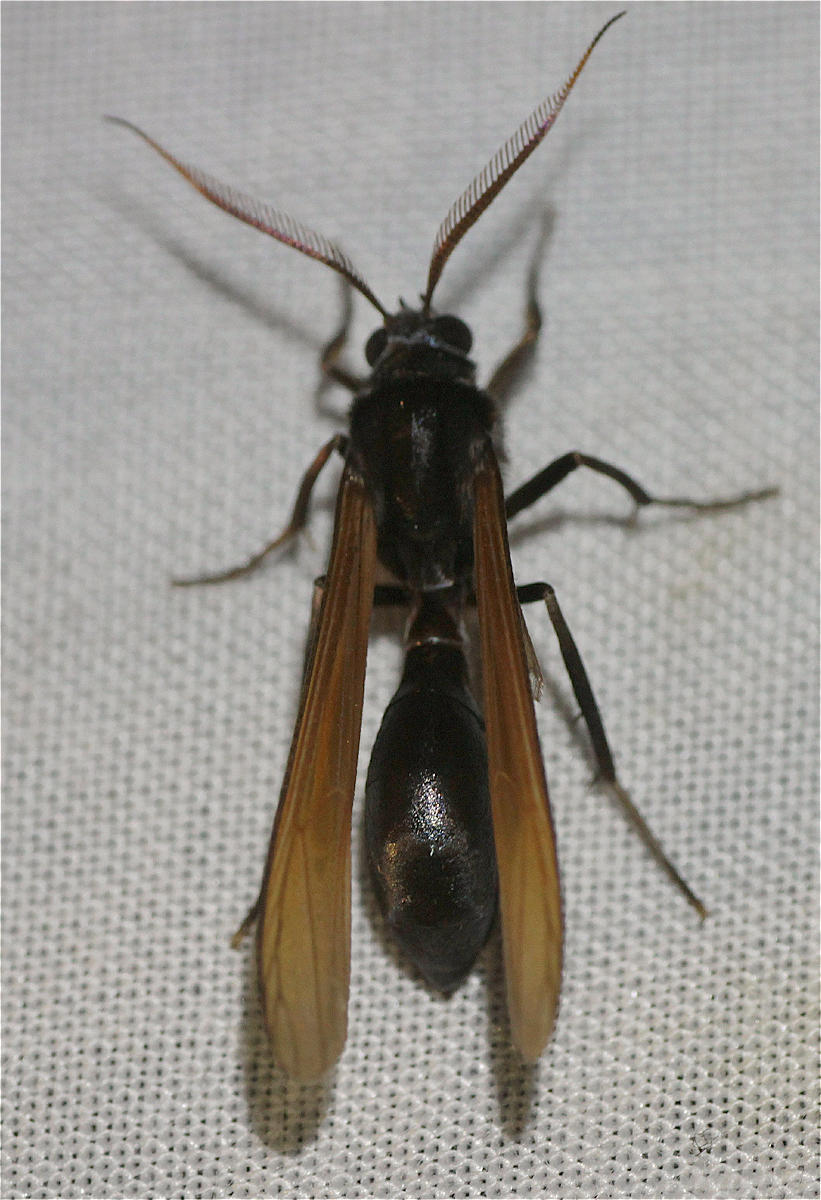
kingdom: Animalia
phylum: Arthropoda
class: Insecta
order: Lepidoptera
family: Erebidae
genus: Pseudosphex
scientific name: Pseudosphex ichneumonea
